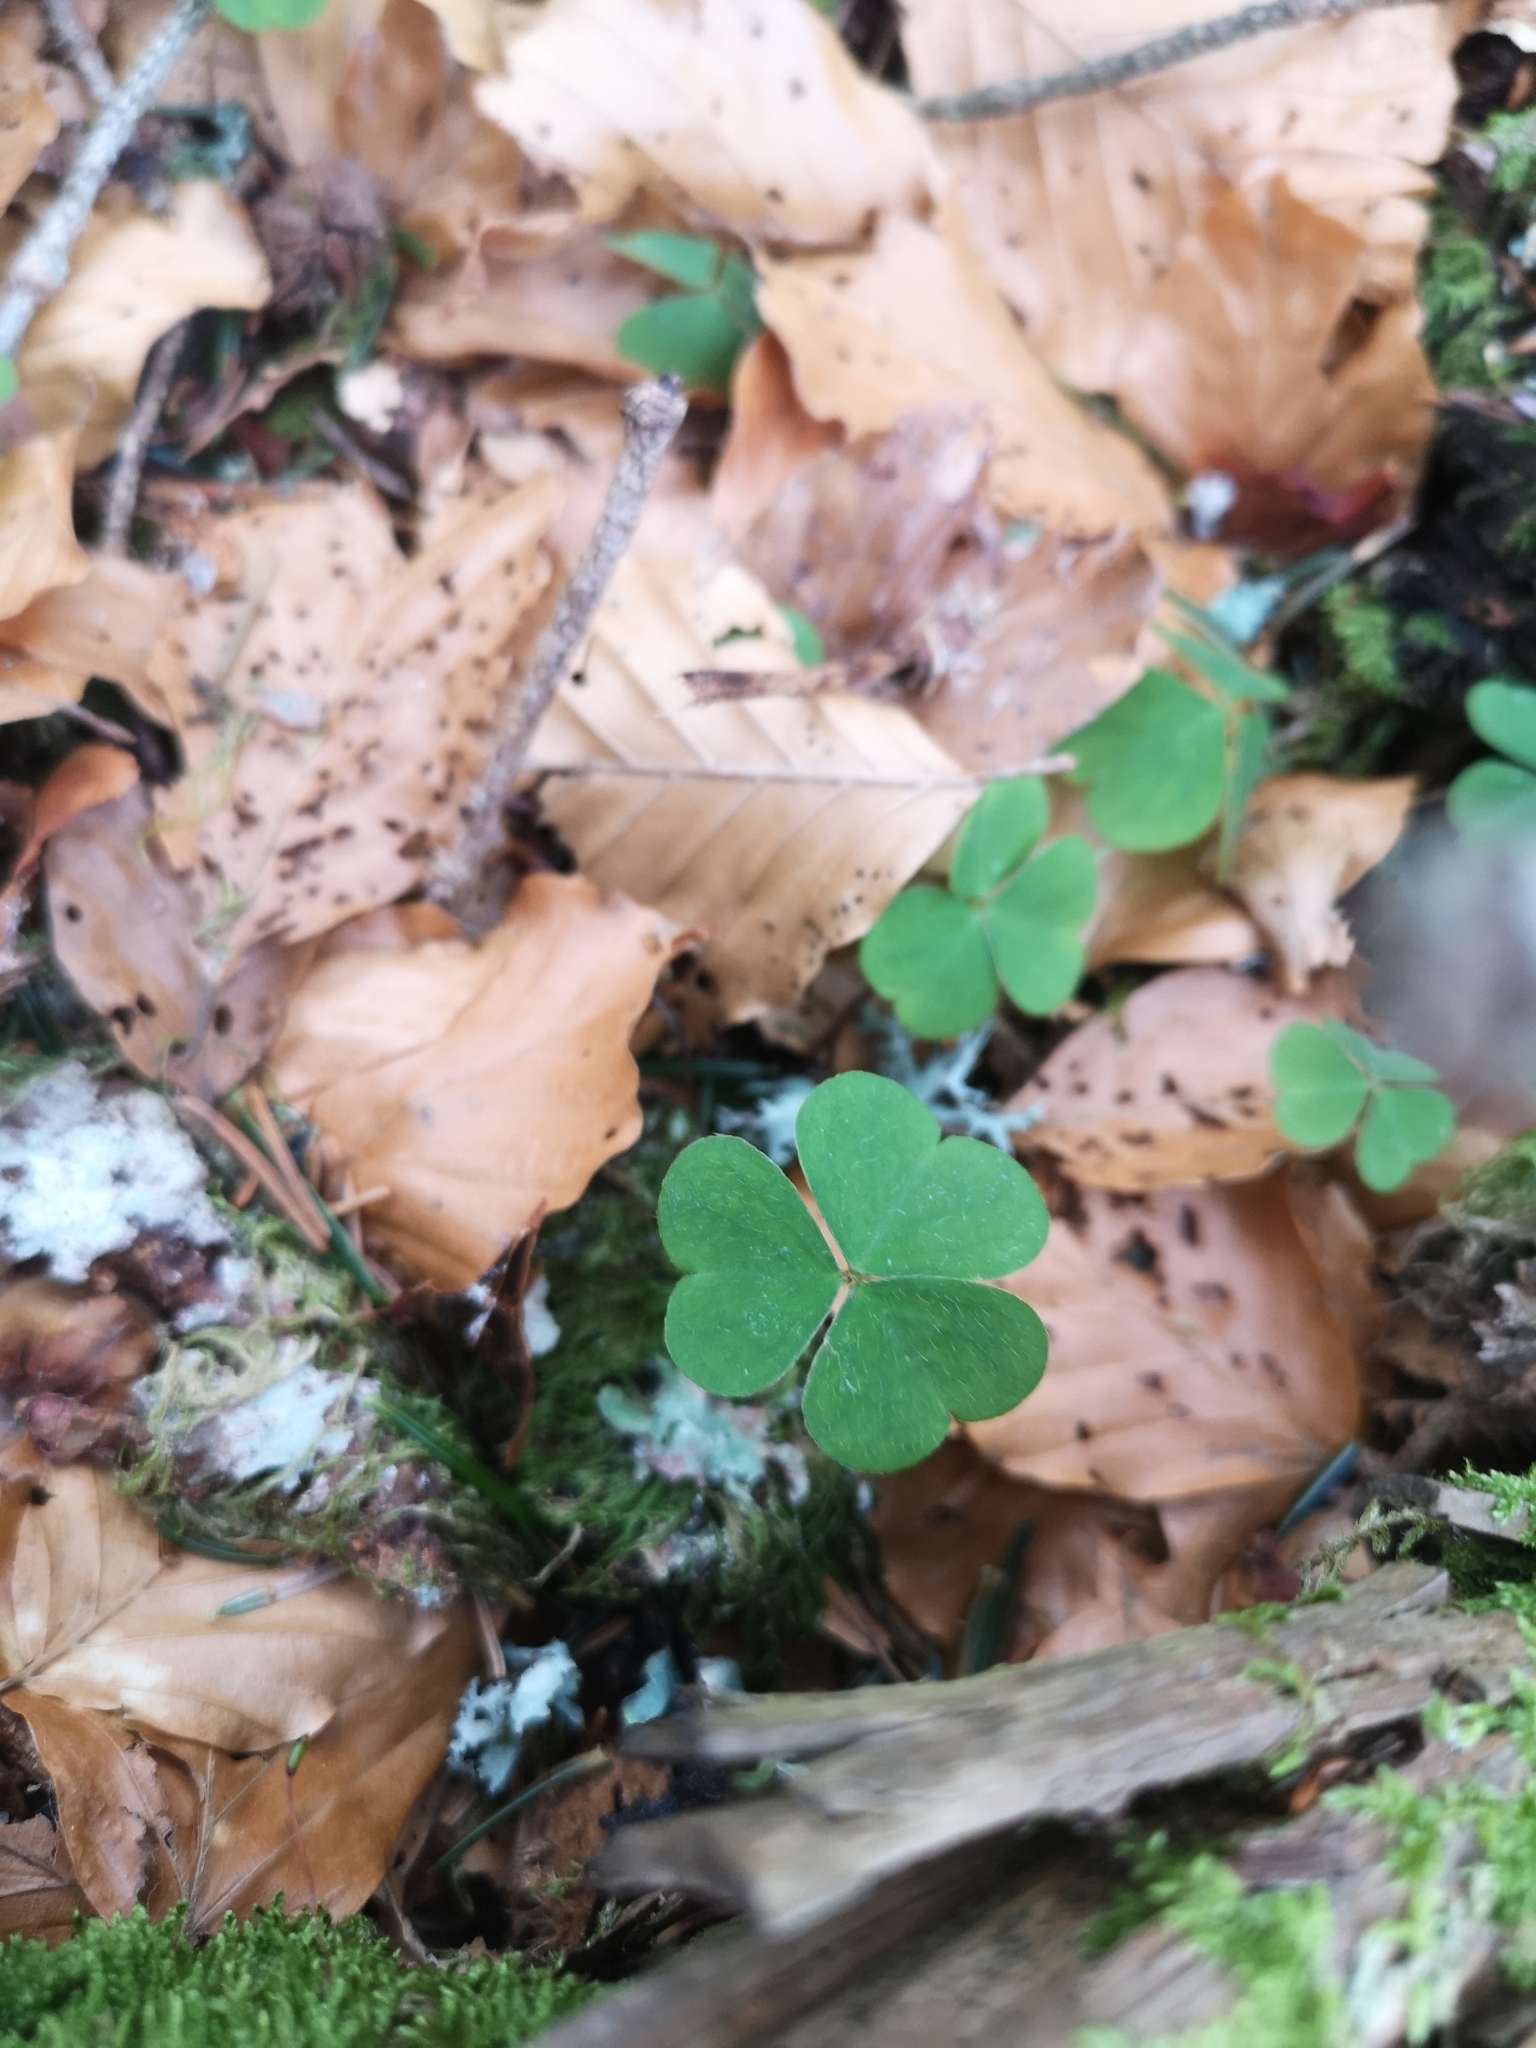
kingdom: Plantae
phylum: Tracheophyta
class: Magnoliopsida
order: Oxalidales
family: Oxalidaceae
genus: Oxalis
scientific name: Oxalis acetosella
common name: Wood-sorrel
